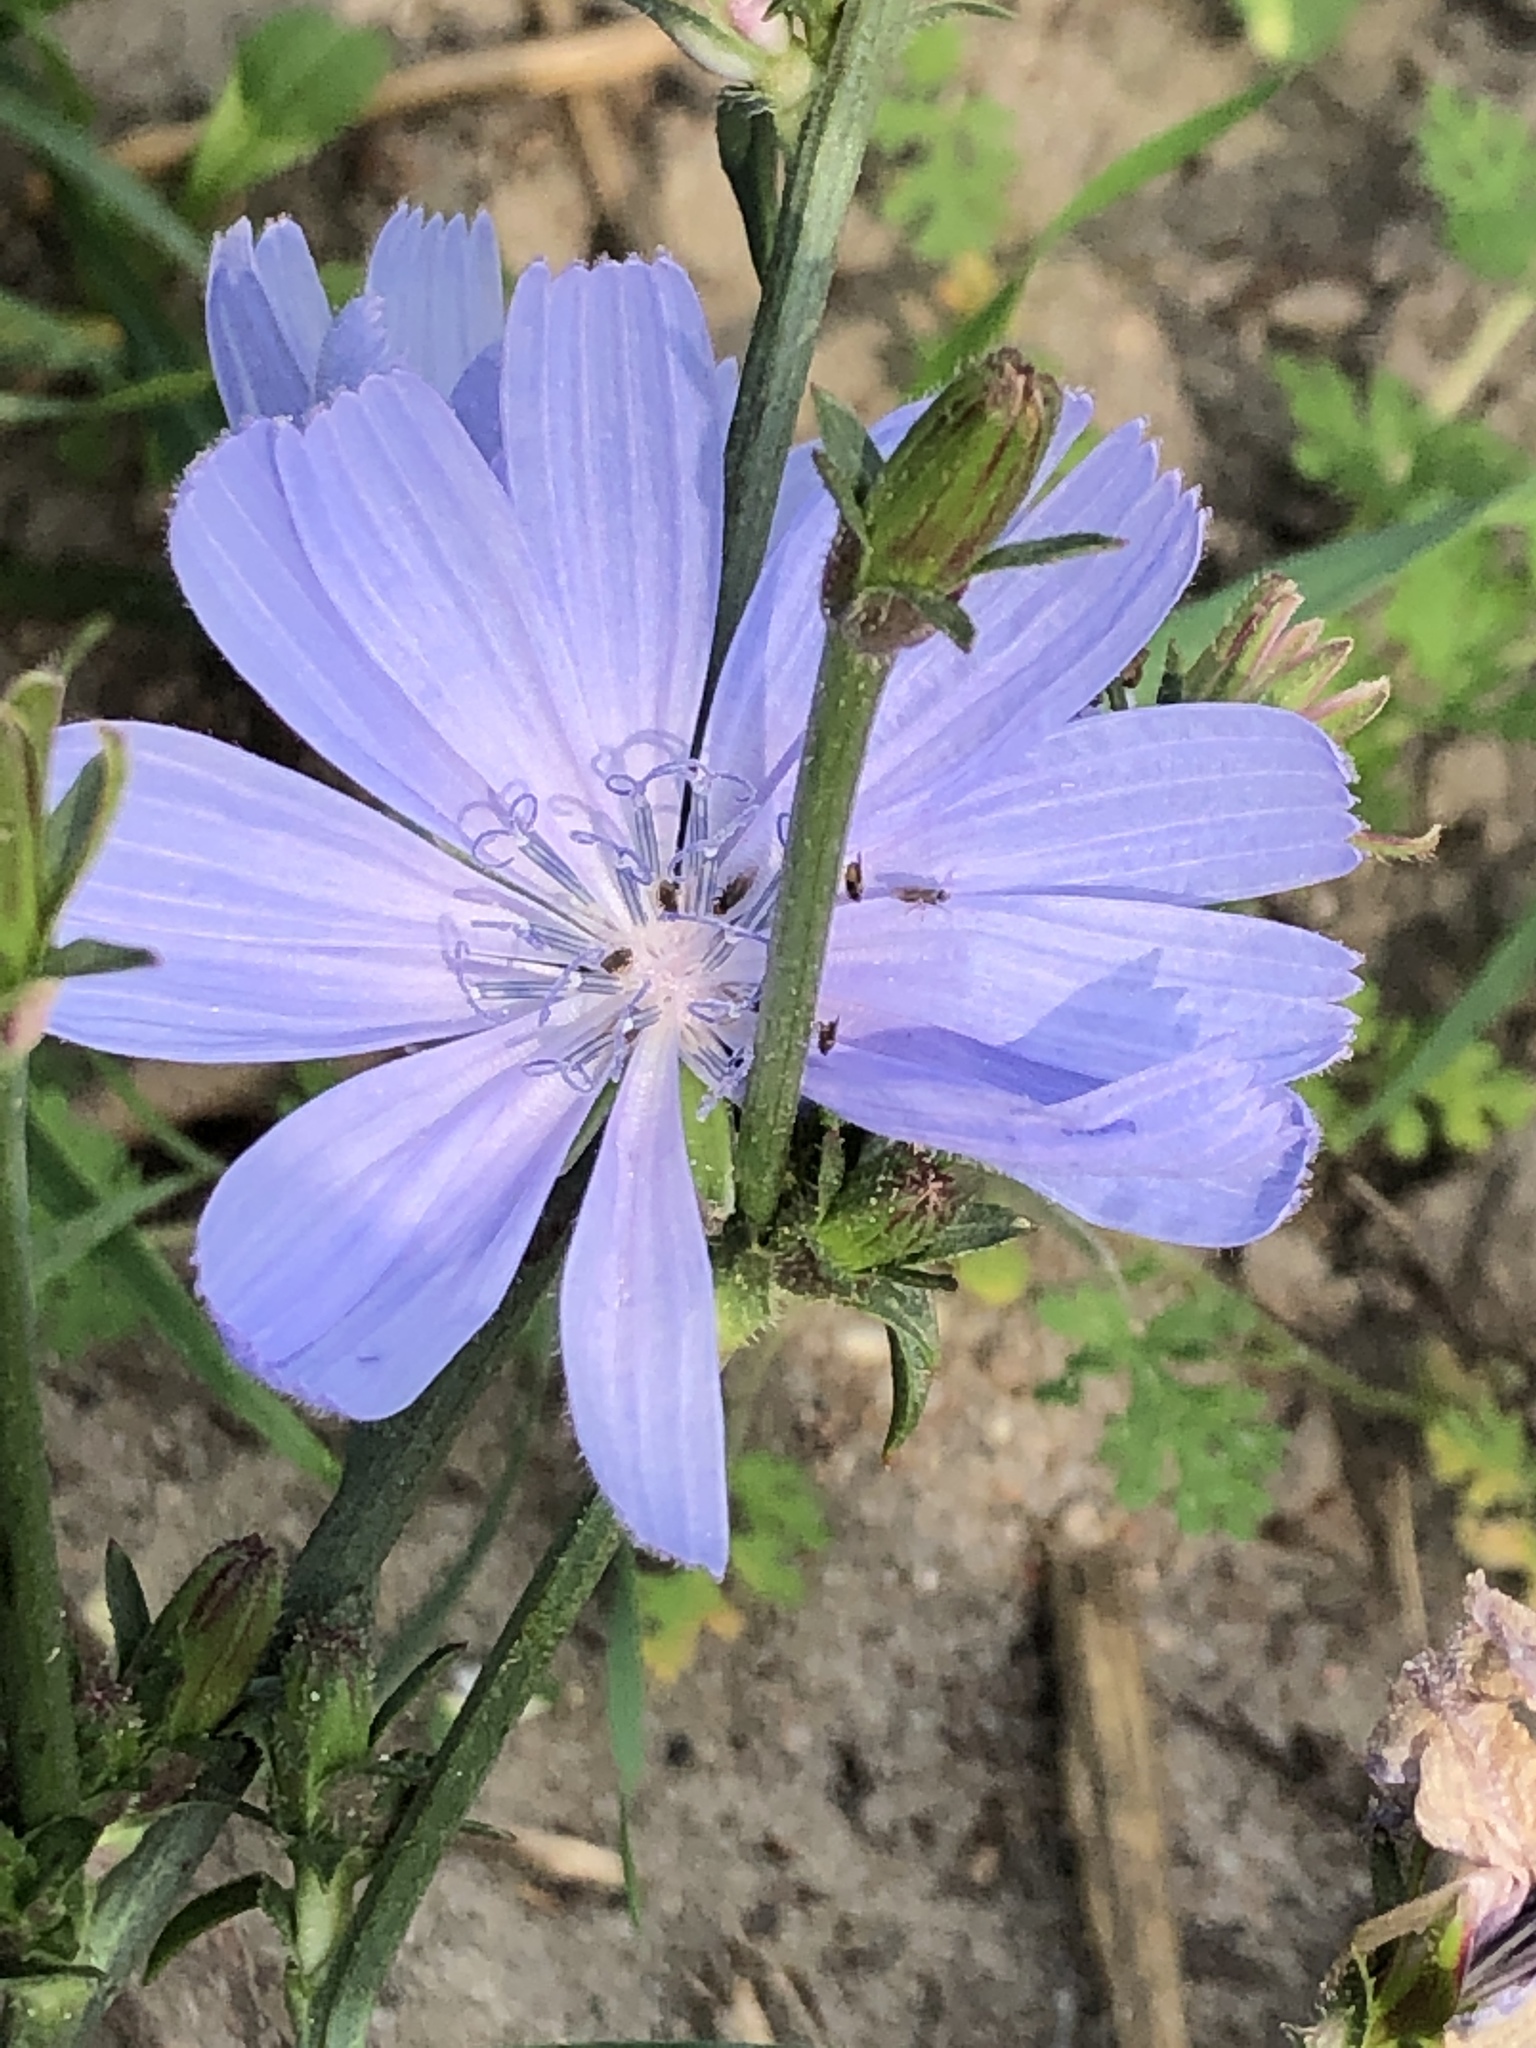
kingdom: Plantae
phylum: Tracheophyta
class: Magnoliopsida
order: Asterales
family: Asteraceae
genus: Cichorium
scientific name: Cichorium intybus
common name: Chicory
